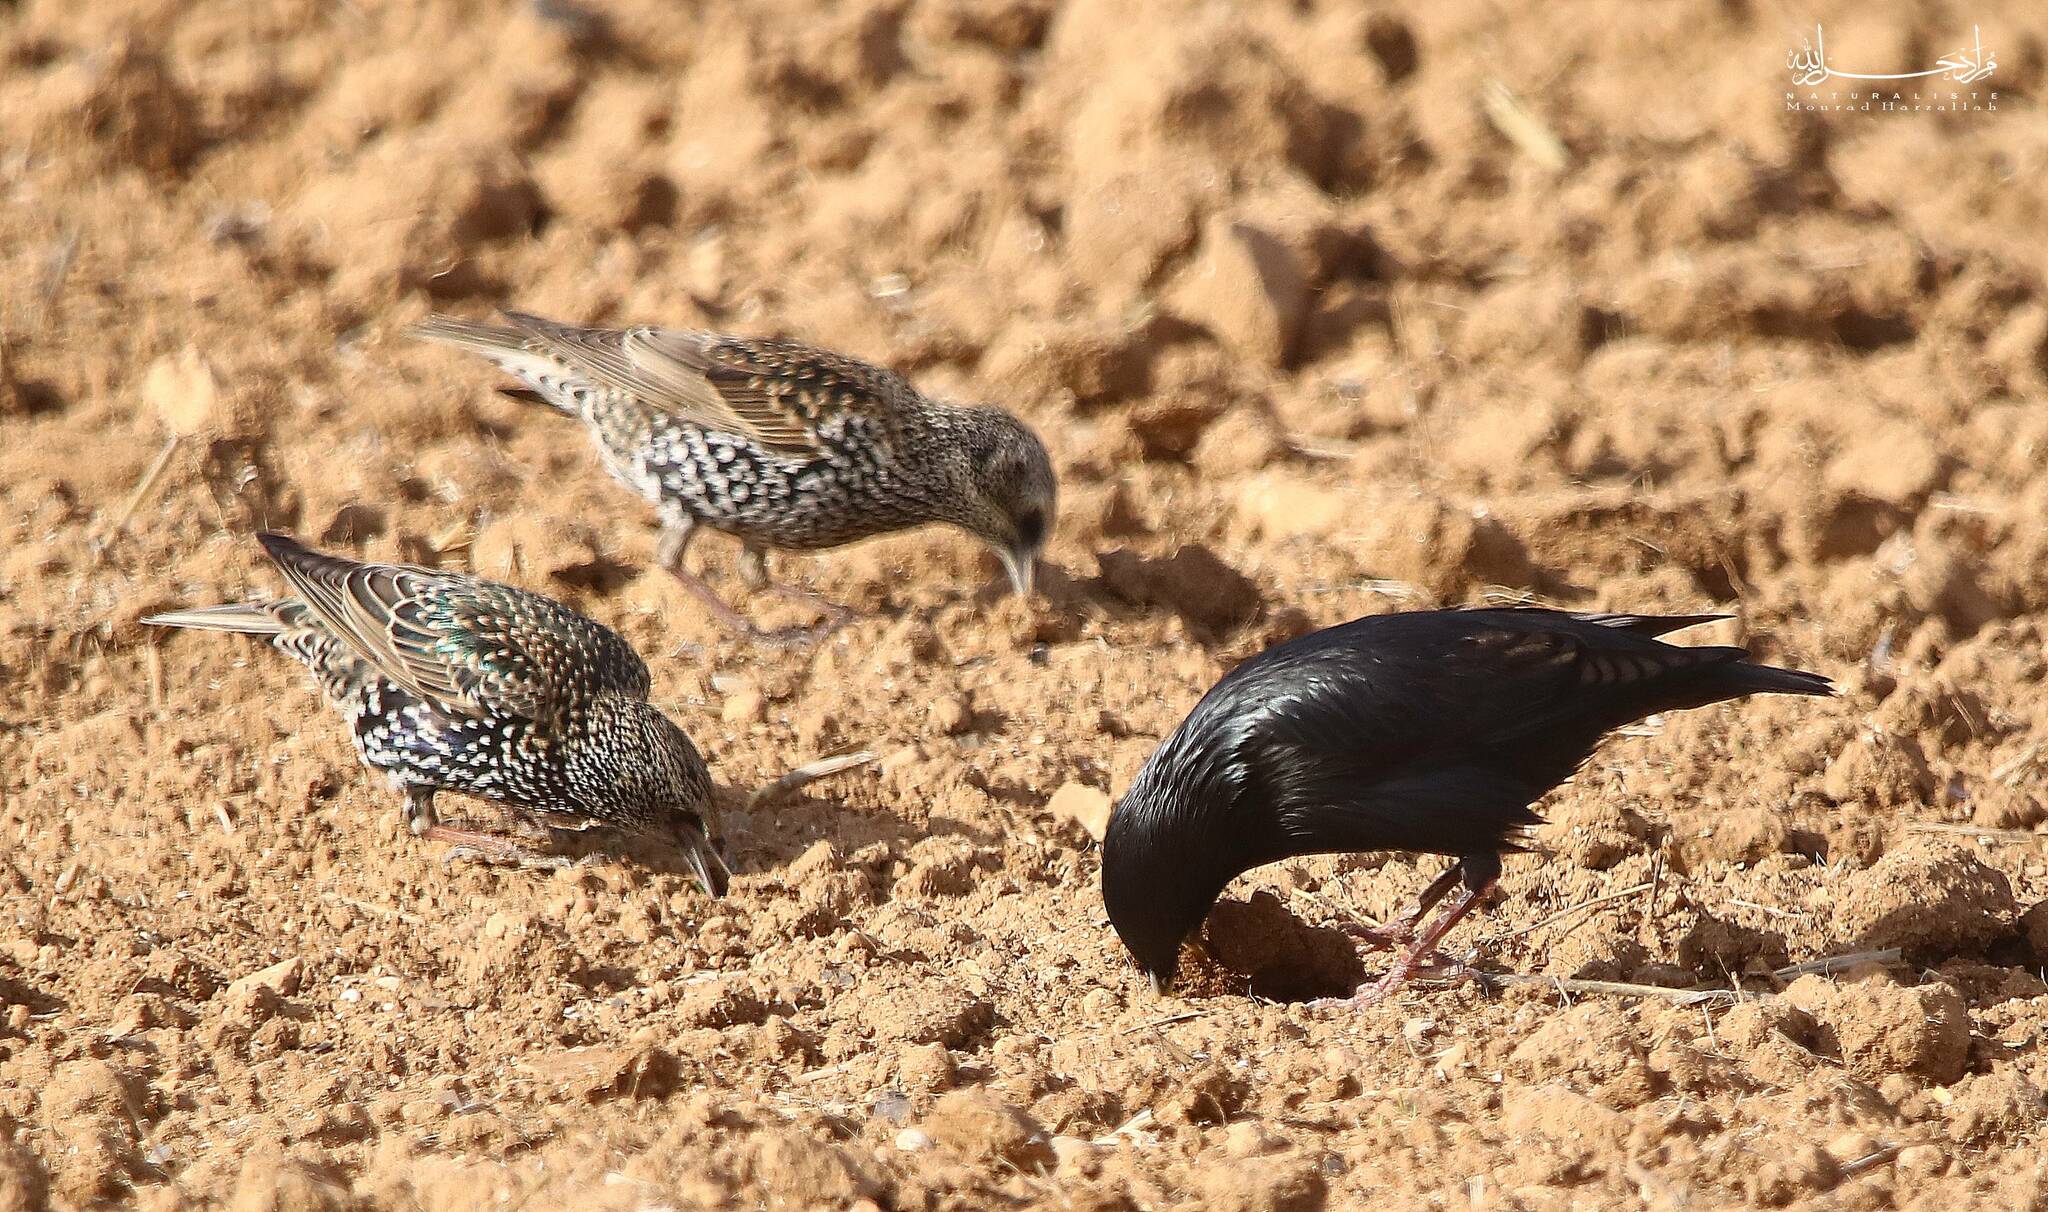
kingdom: Animalia
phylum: Chordata
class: Aves
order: Passeriformes
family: Sturnidae
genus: Sturnus
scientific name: Sturnus unicolor
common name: Spotless starling
